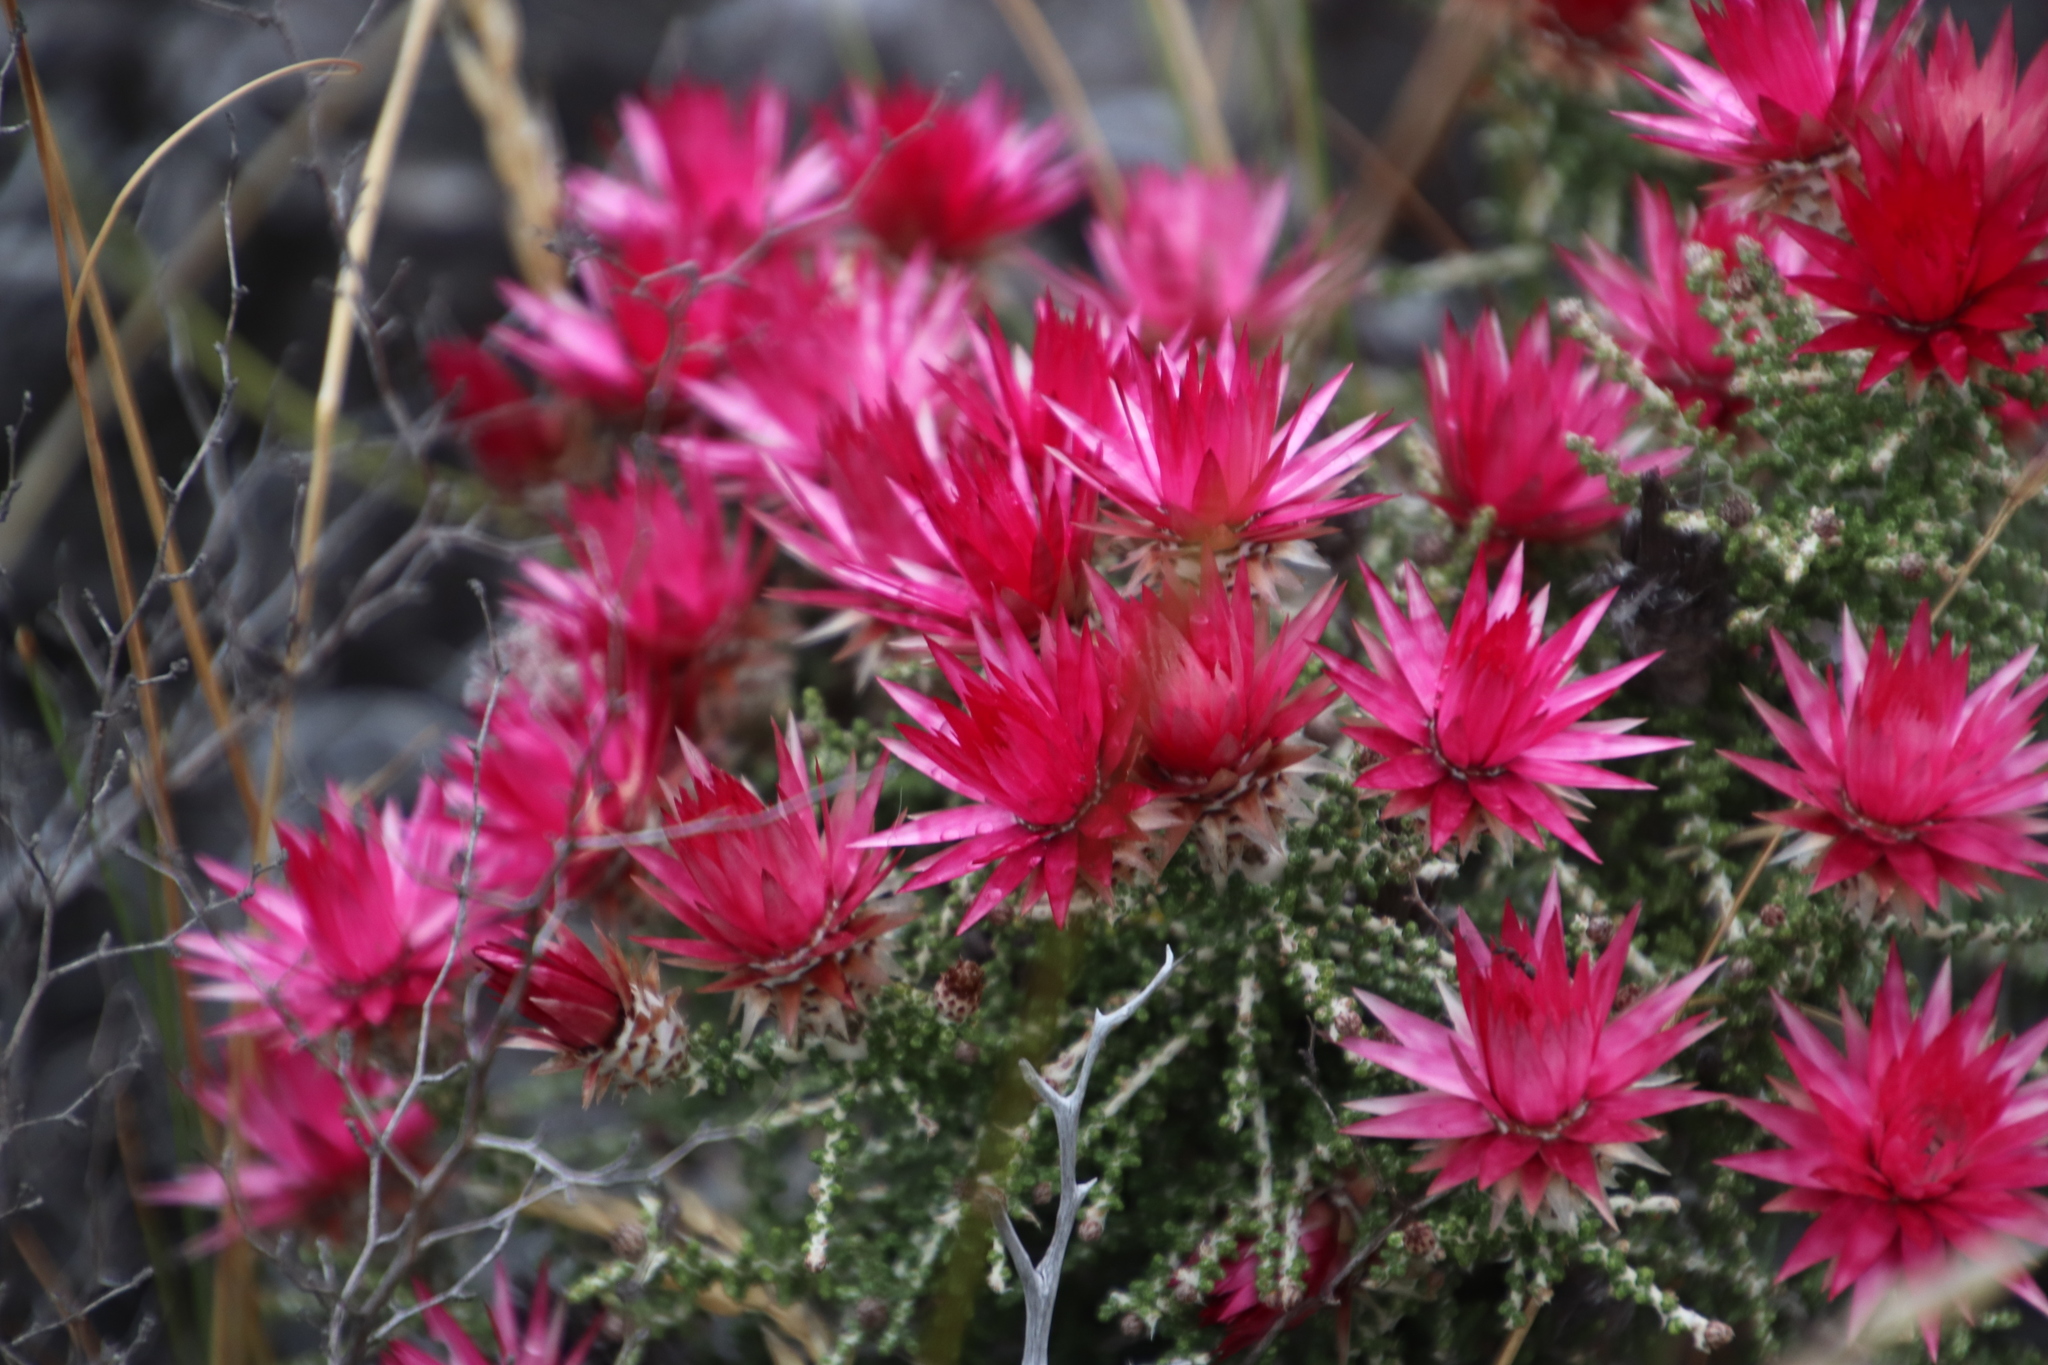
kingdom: Plantae
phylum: Tracheophyta
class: Magnoliopsida
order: Asterales
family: Asteraceae
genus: Phaenocoma
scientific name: Phaenocoma prolifera
